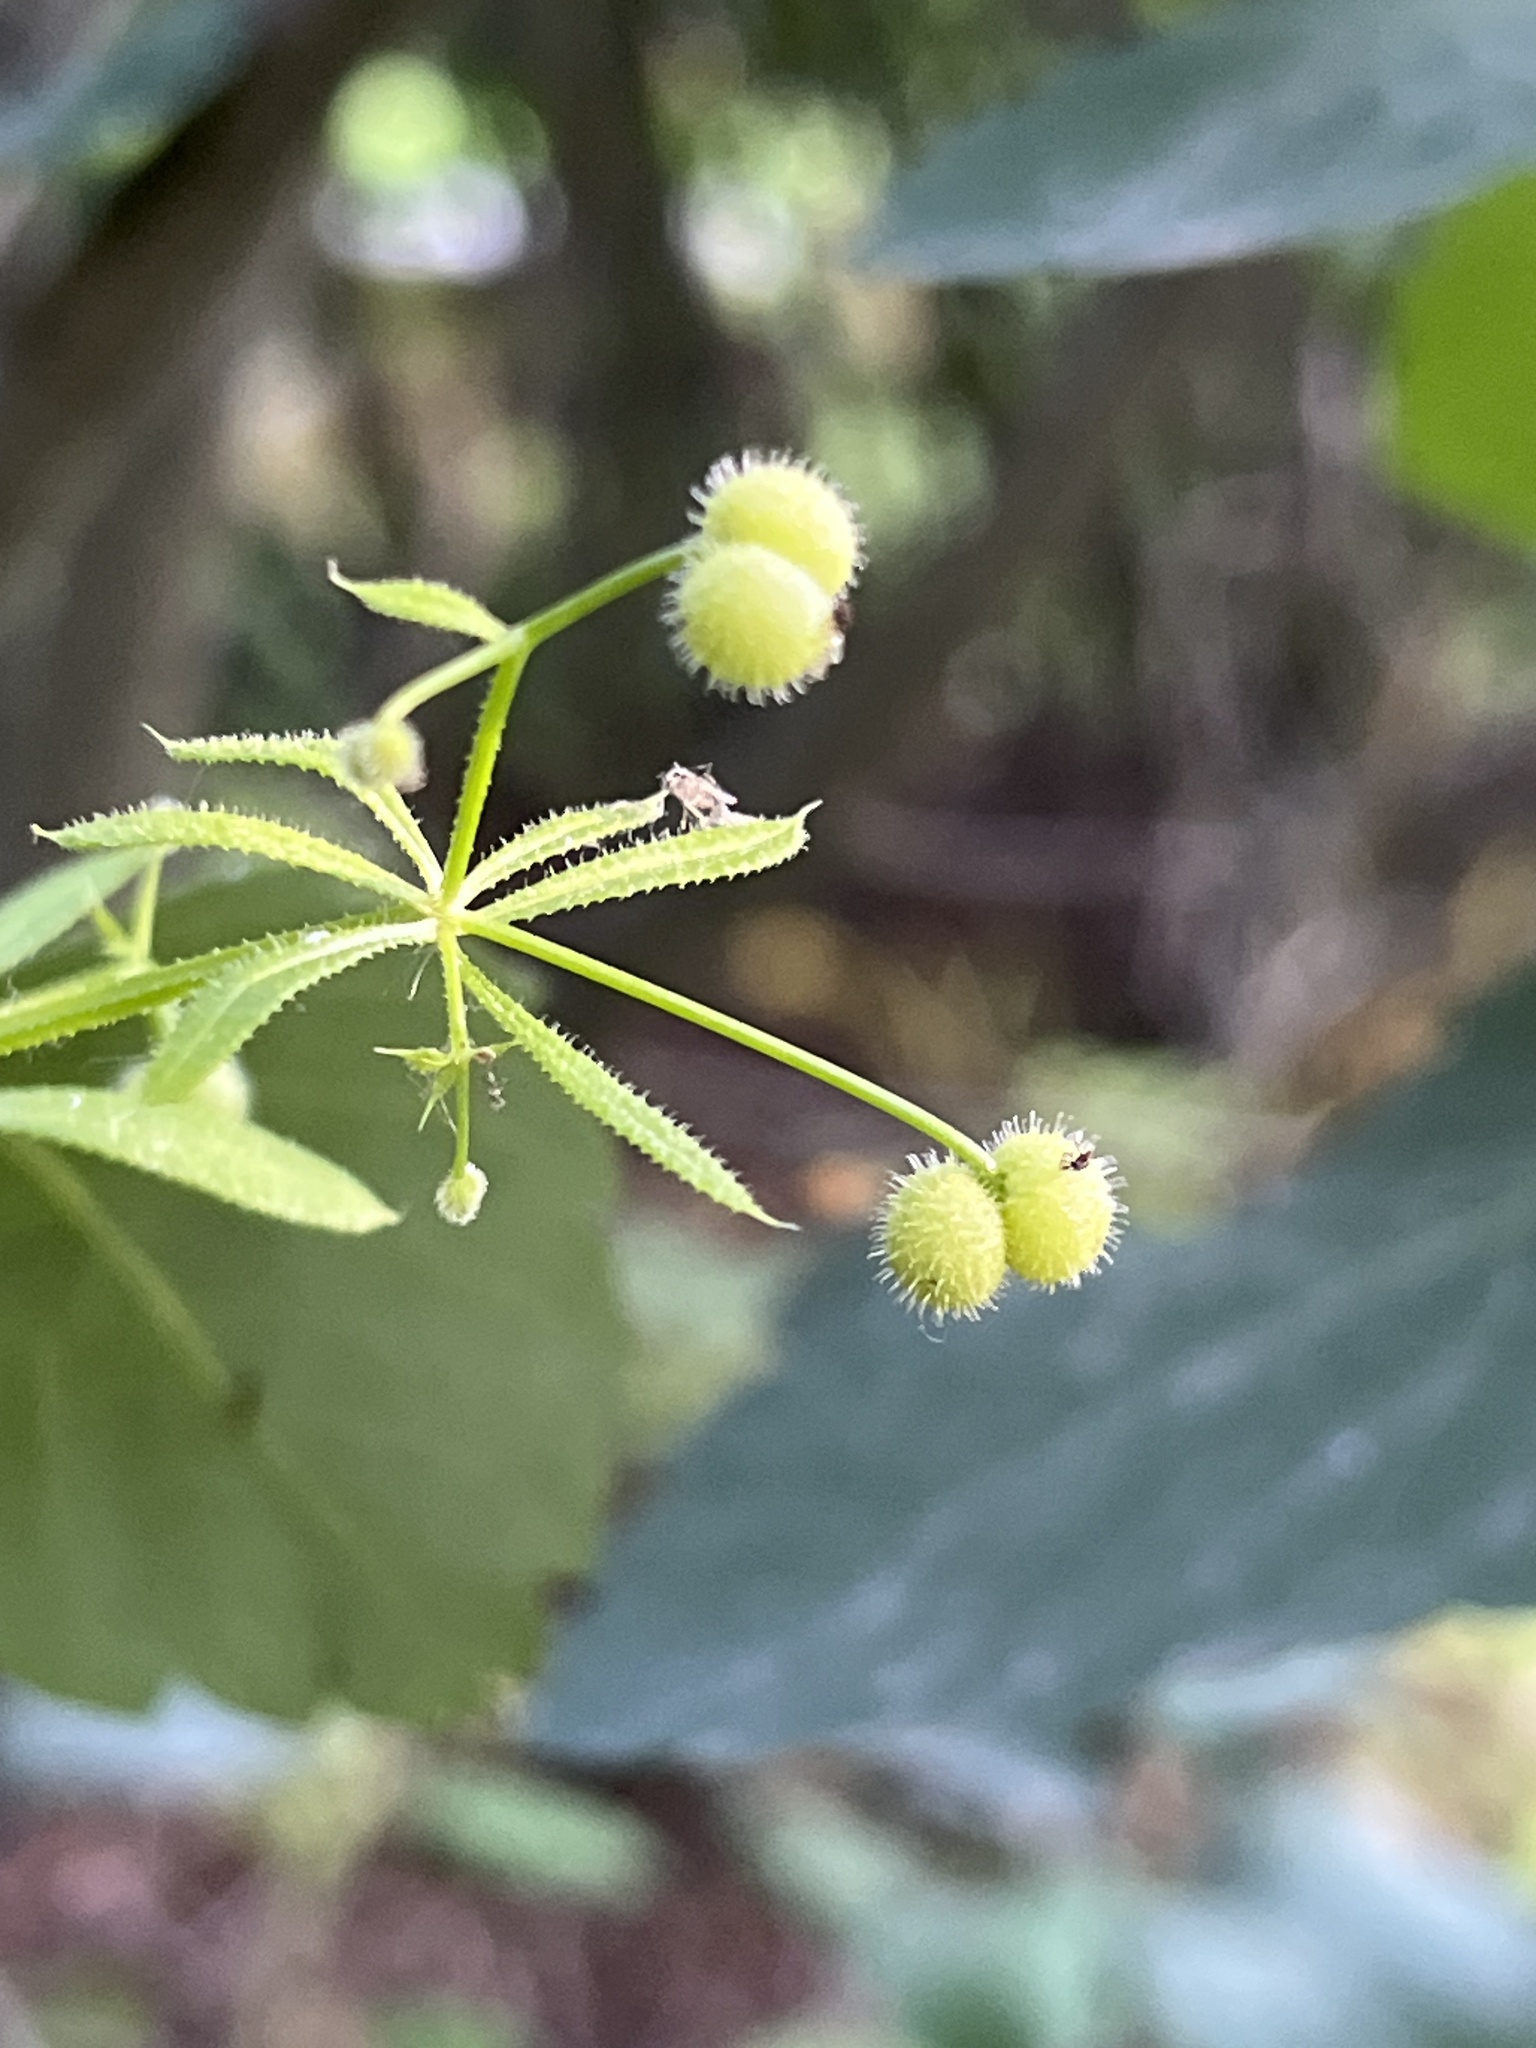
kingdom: Plantae
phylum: Tracheophyta
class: Magnoliopsida
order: Gentianales
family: Rubiaceae
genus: Galium
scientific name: Galium aparine
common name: Cleavers
